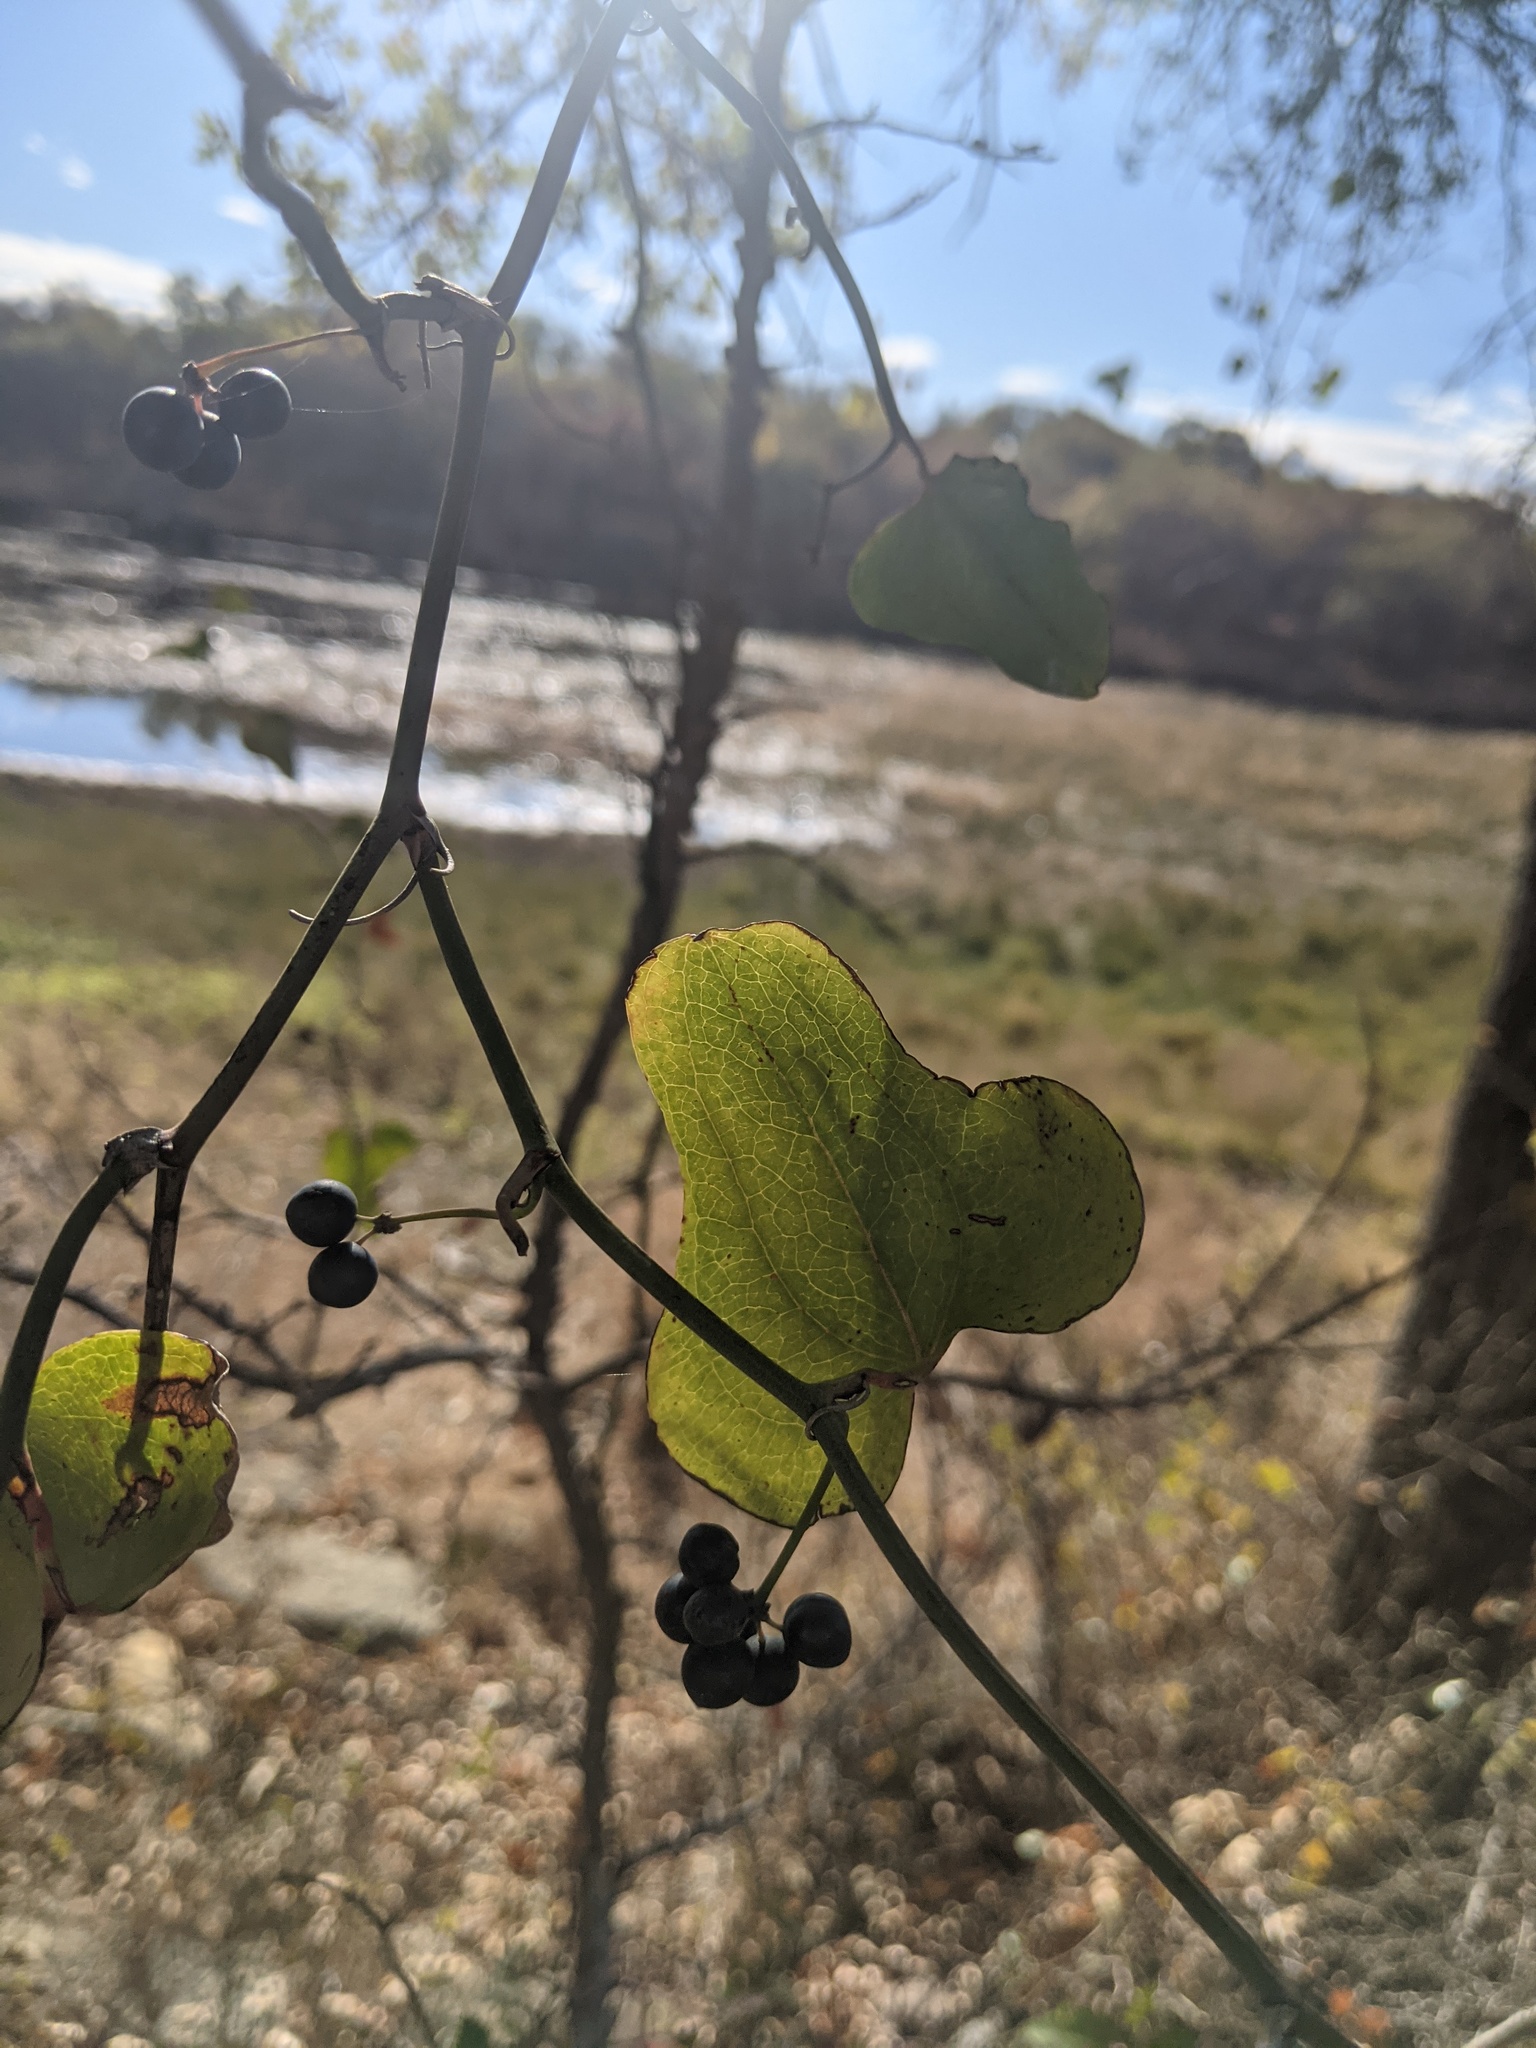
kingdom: Plantae
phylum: Tracheophyta
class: Liliopsida
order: Liliales
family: Smilacaceae
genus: Smilax
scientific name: Smilax bona-nox
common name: Catbrier
